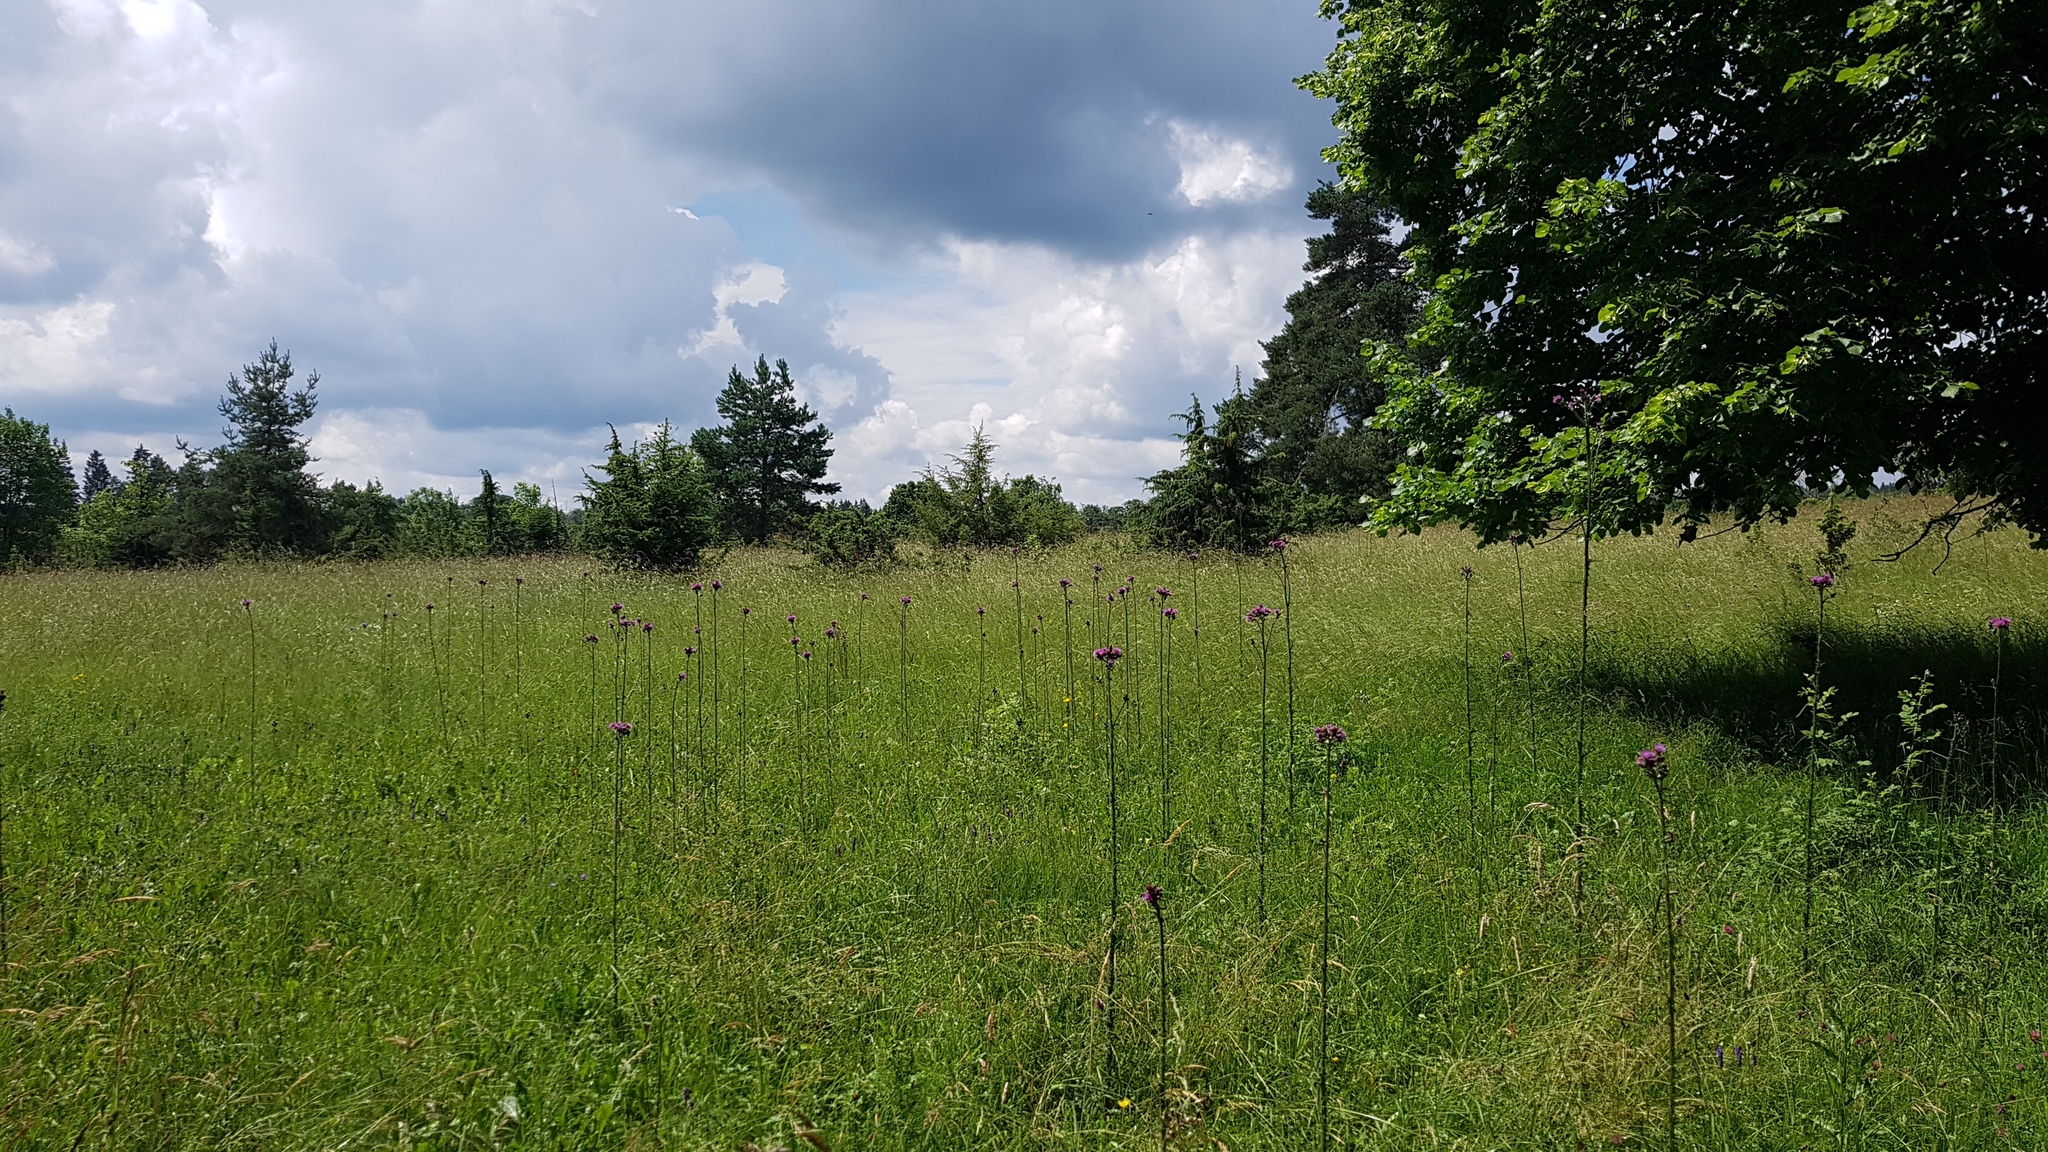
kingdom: Plantae
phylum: Tracheophyta
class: Magnoliopsida
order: Asterales
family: Asteraceae
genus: Cirsium
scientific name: Cirsium palustre
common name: Marsh thistle
